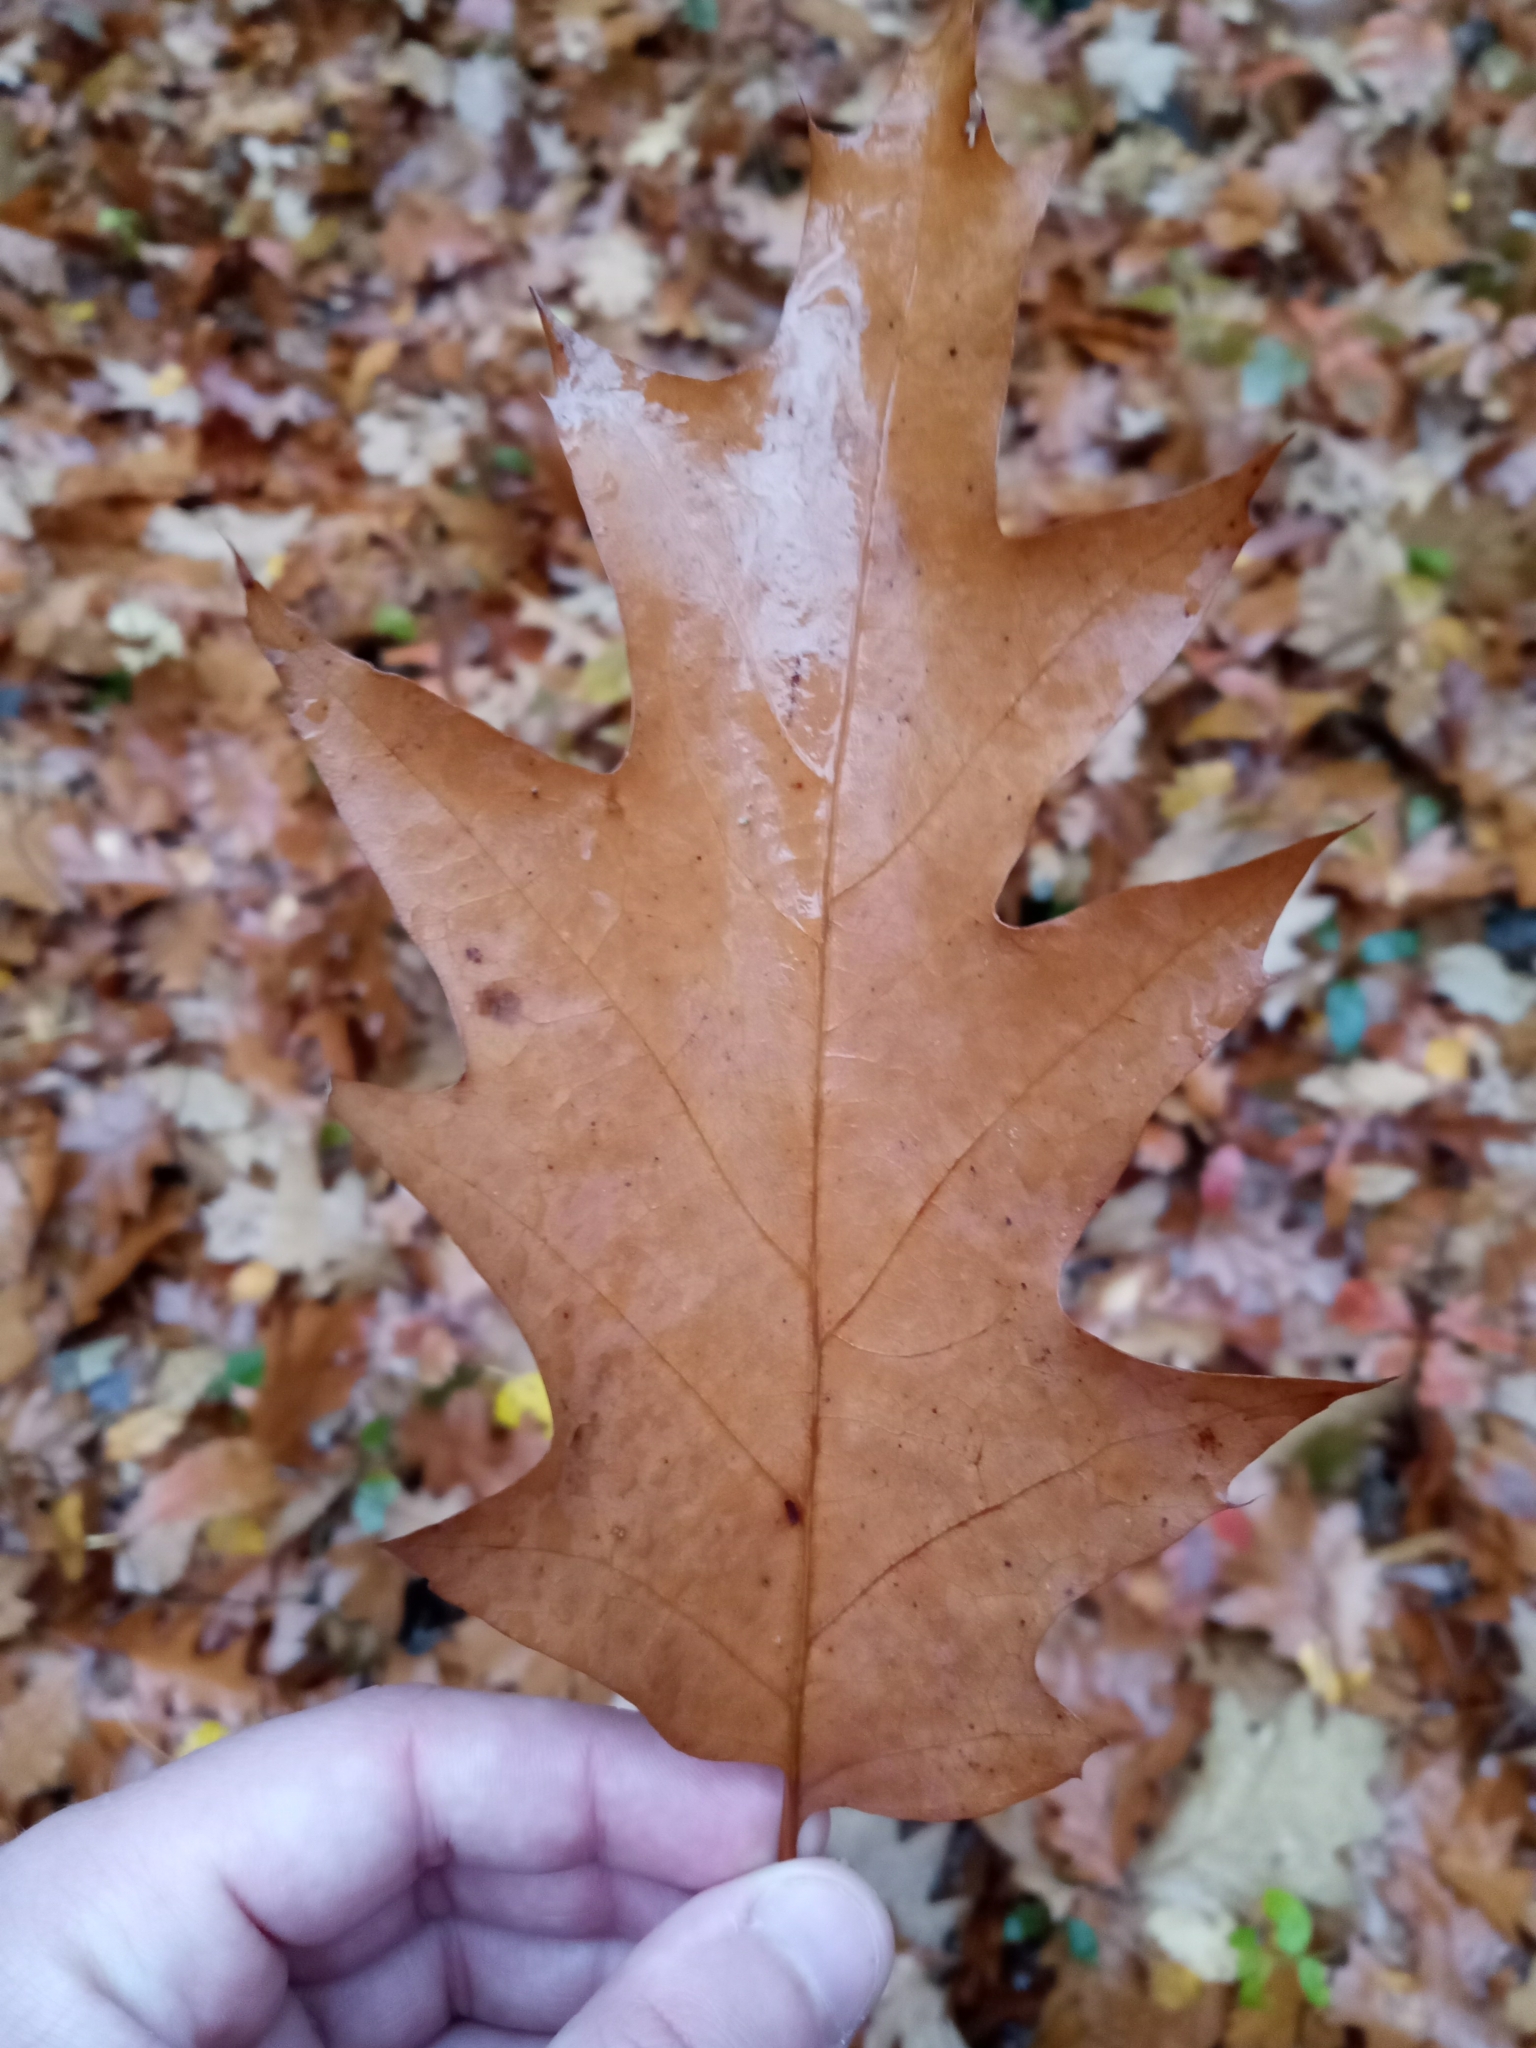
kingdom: Plantae
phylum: Tracheophyta
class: Magnoliopsida
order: Fagales
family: Fagaceae
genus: Quercus
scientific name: Quercus rubra
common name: Red oak
